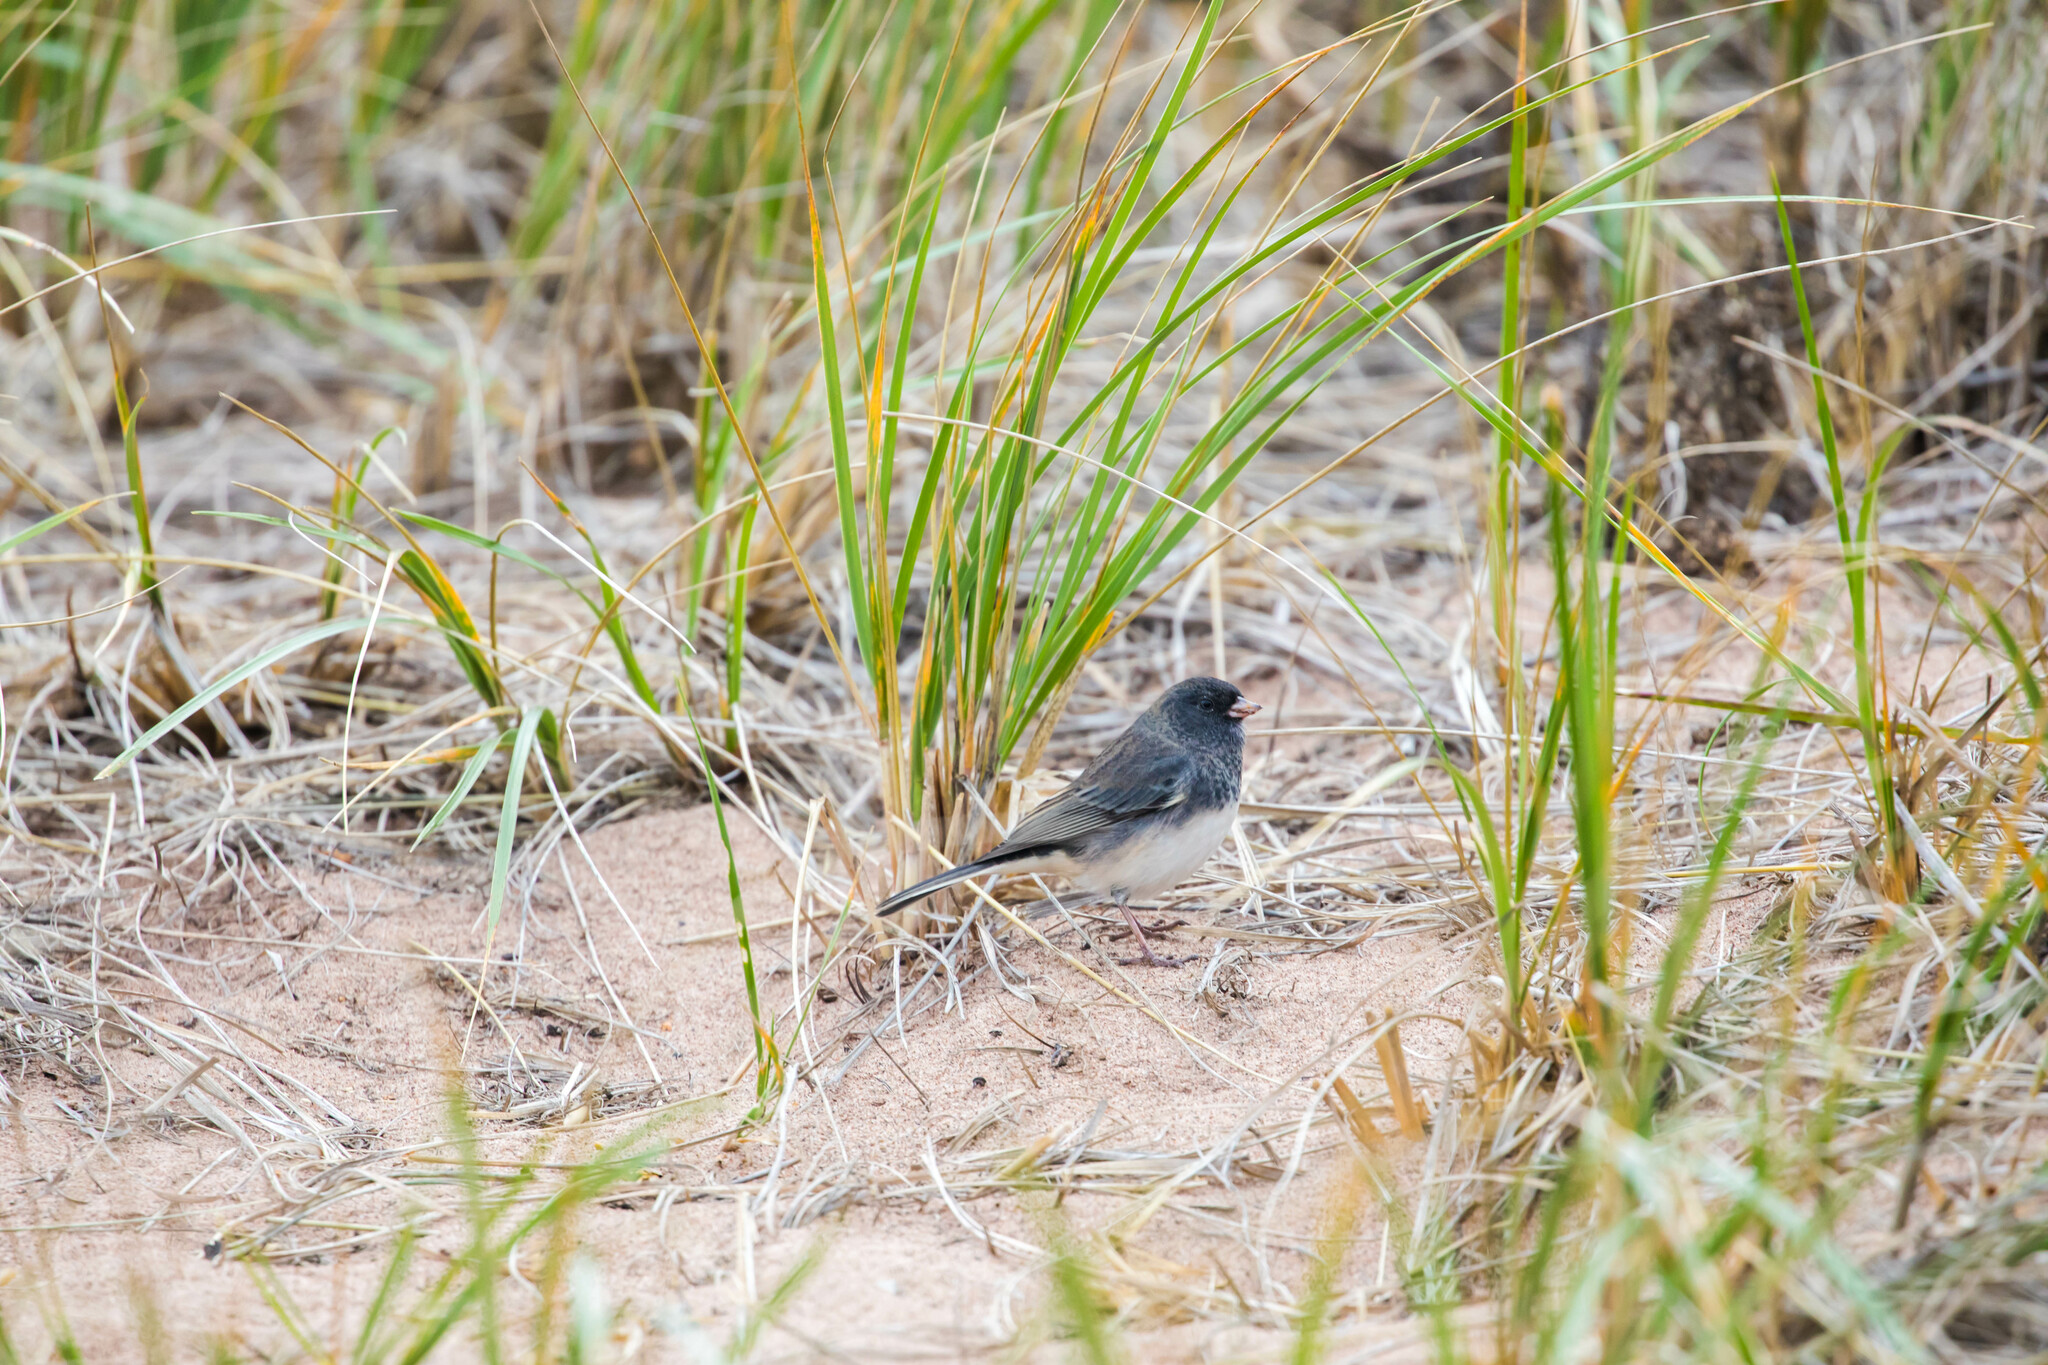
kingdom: Animalia
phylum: Chordata
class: Aves
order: Passeriformes
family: Passerellidae
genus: Junco
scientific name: Junco hyemalis
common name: Dark-eyed junco
